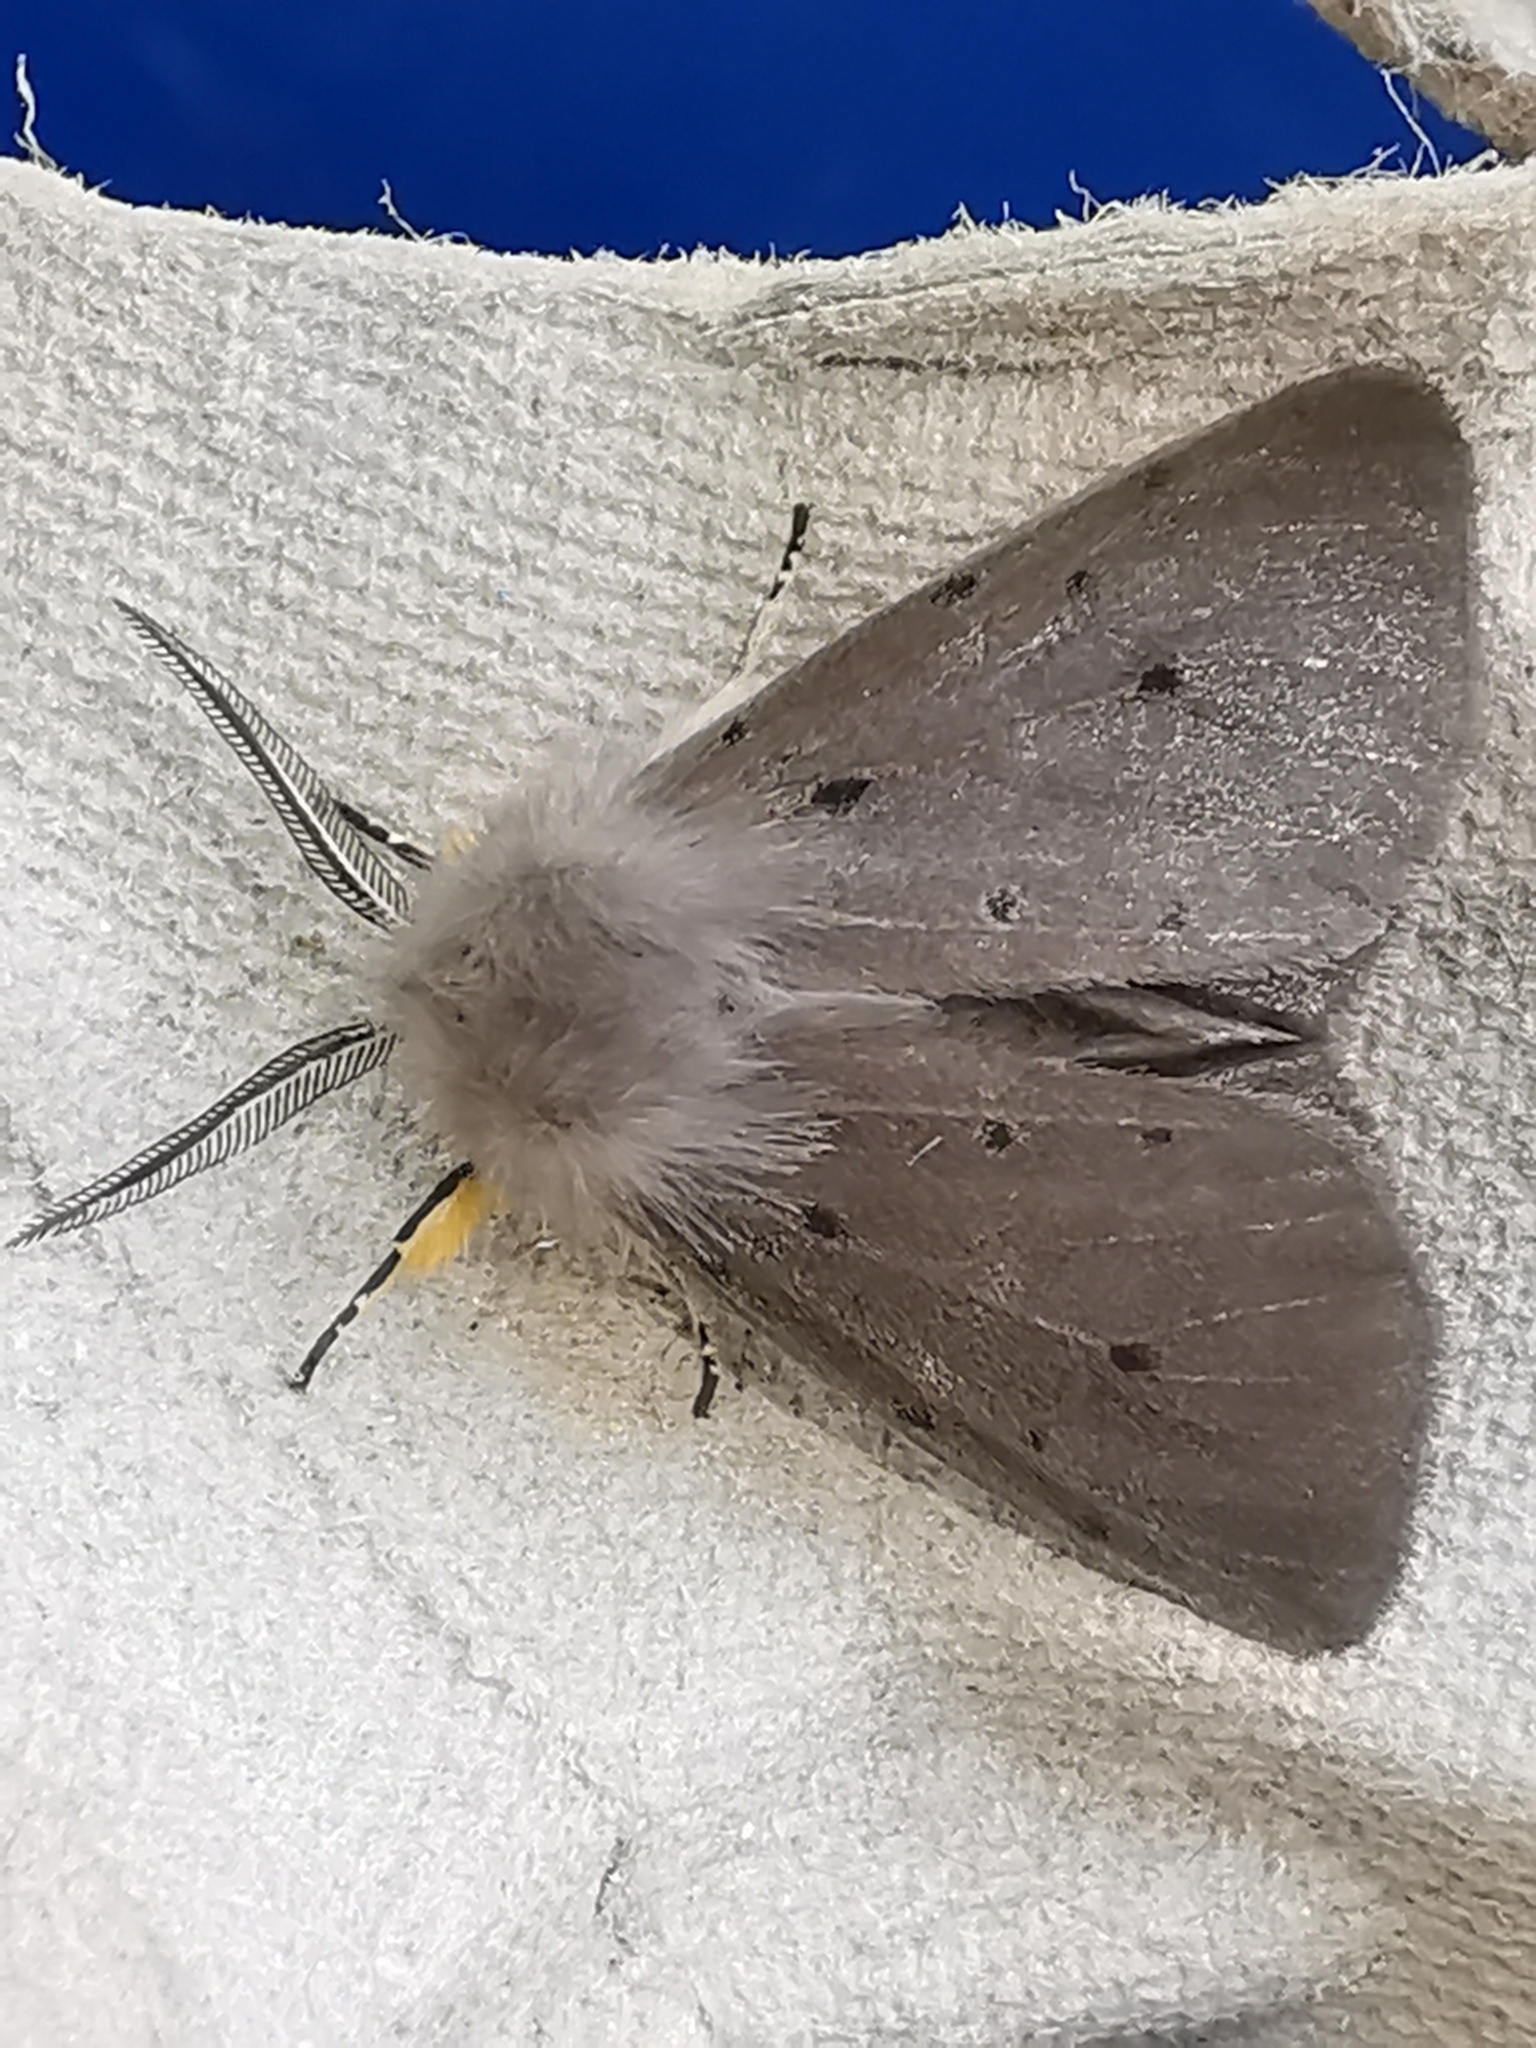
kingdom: Animalia
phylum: Arthropoda
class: Insecta
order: Lepidoptera
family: Erebidae
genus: Diaphora
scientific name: Diaphora mendica
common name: Muslin moth
